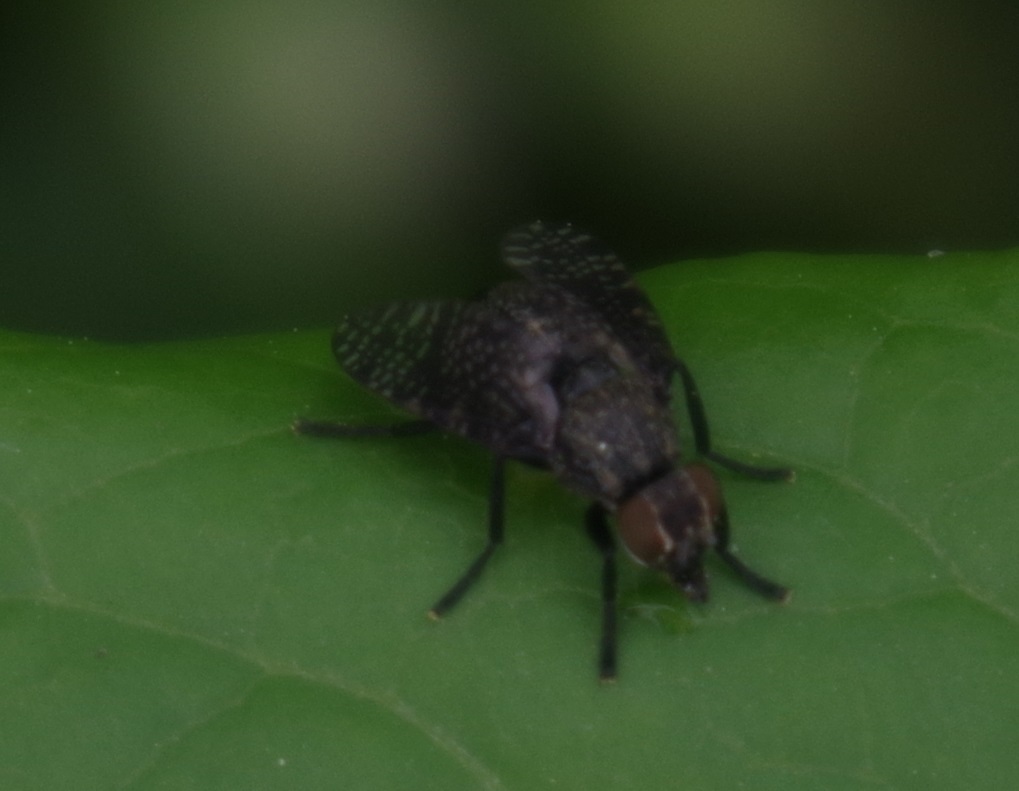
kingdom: Animalia
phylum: Arthropoda
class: Insecta
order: Diptera
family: Platystomatidae
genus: Platystoma
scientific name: Platystoma seminationis
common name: Fly
